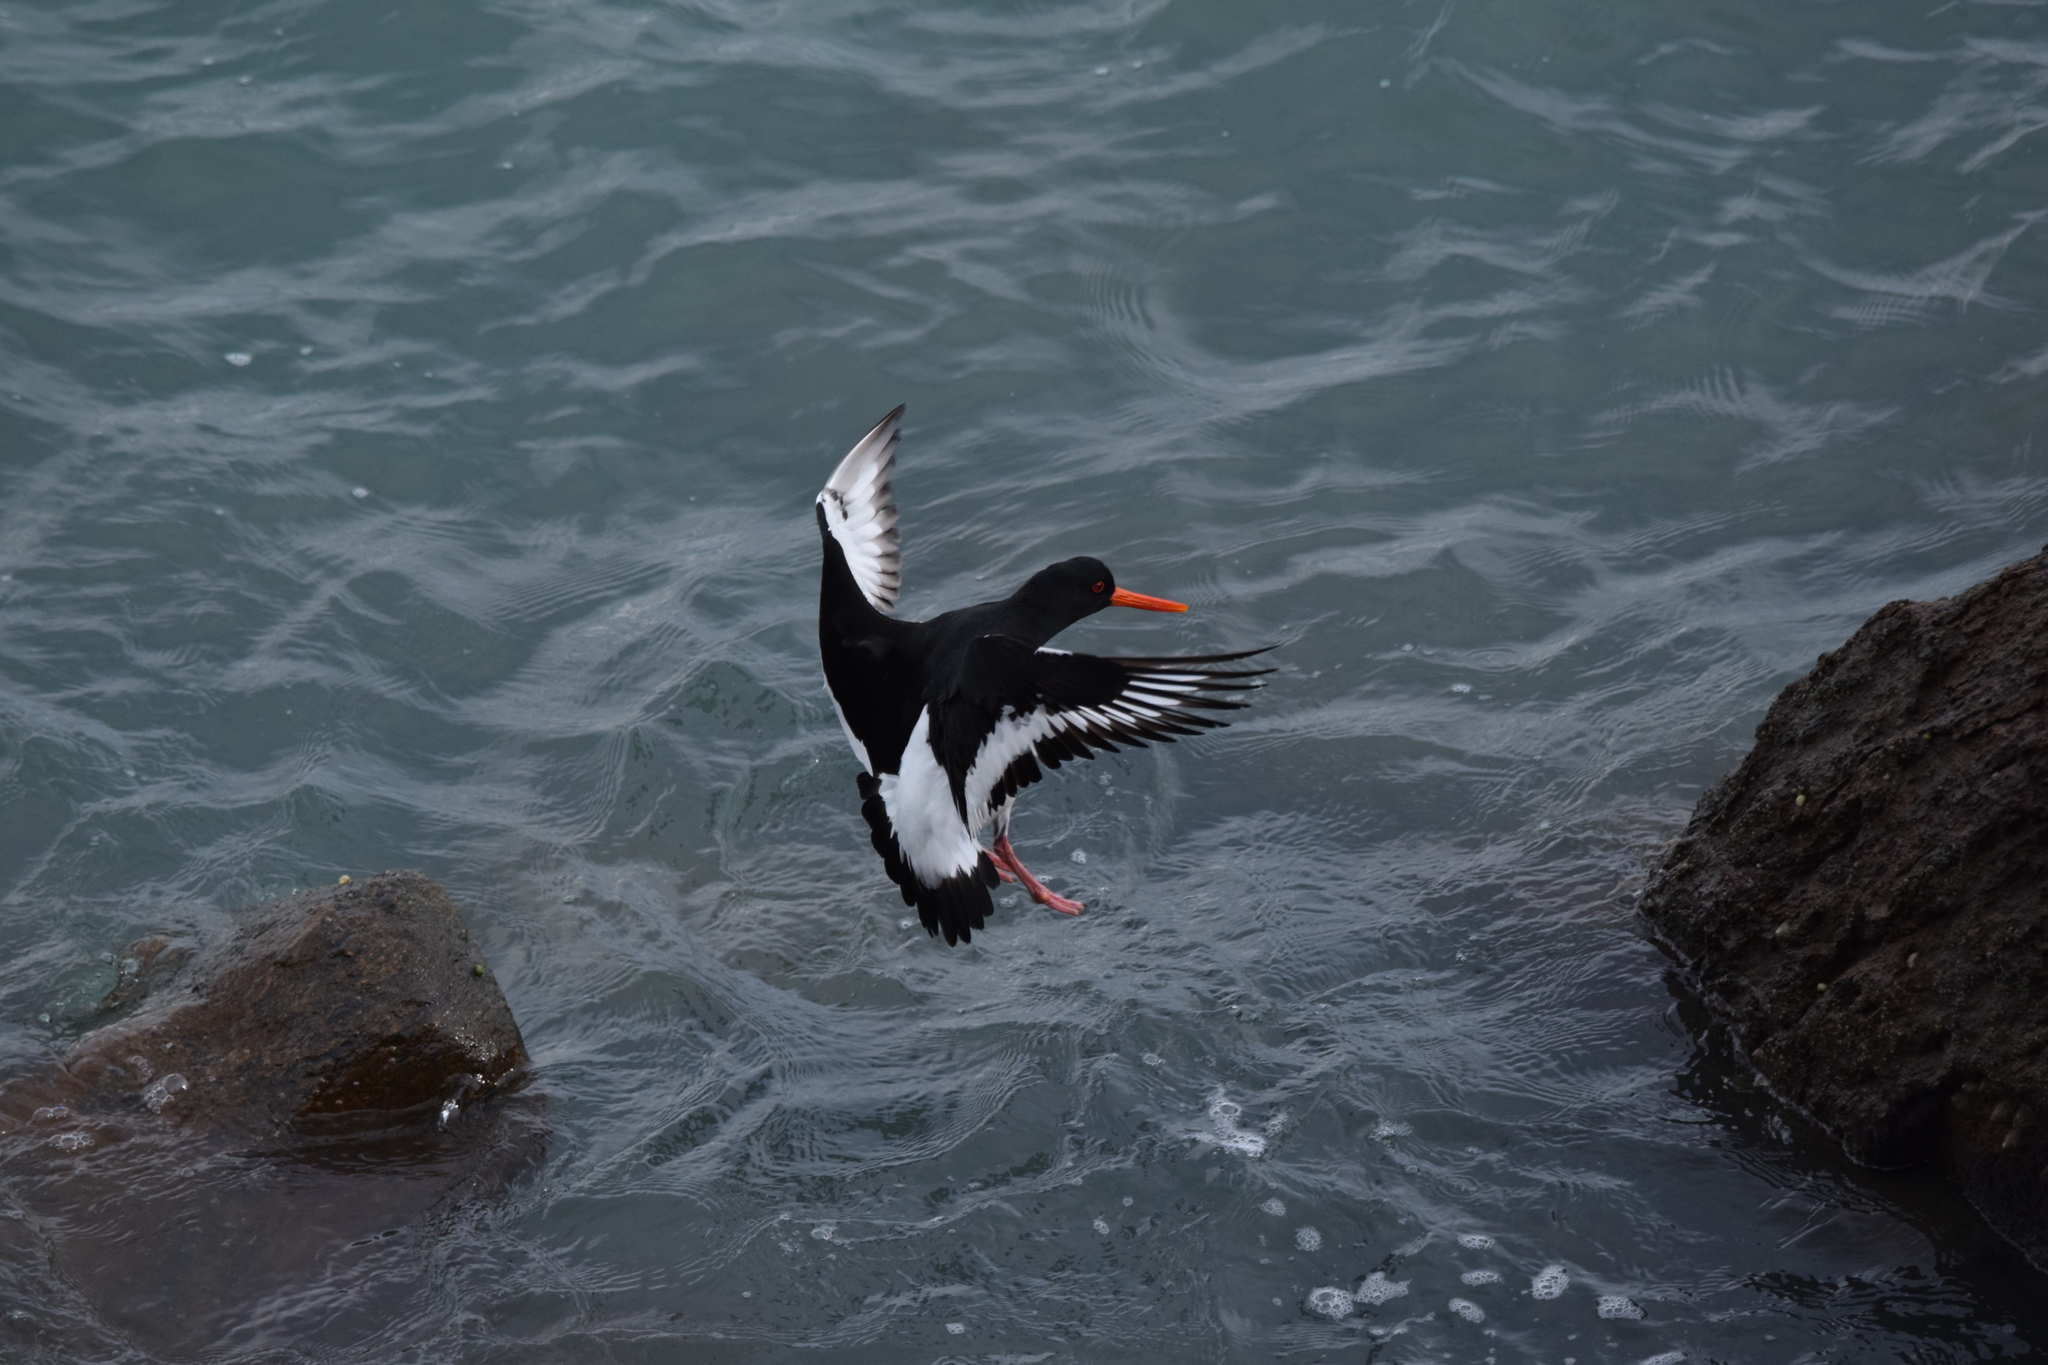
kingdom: Animalia
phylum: Chordata
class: Aves
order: Charadriiformes
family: Haematopodidae
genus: Haematopus
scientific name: Haematopus ostralegus
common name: Eurasian oystercatcher
